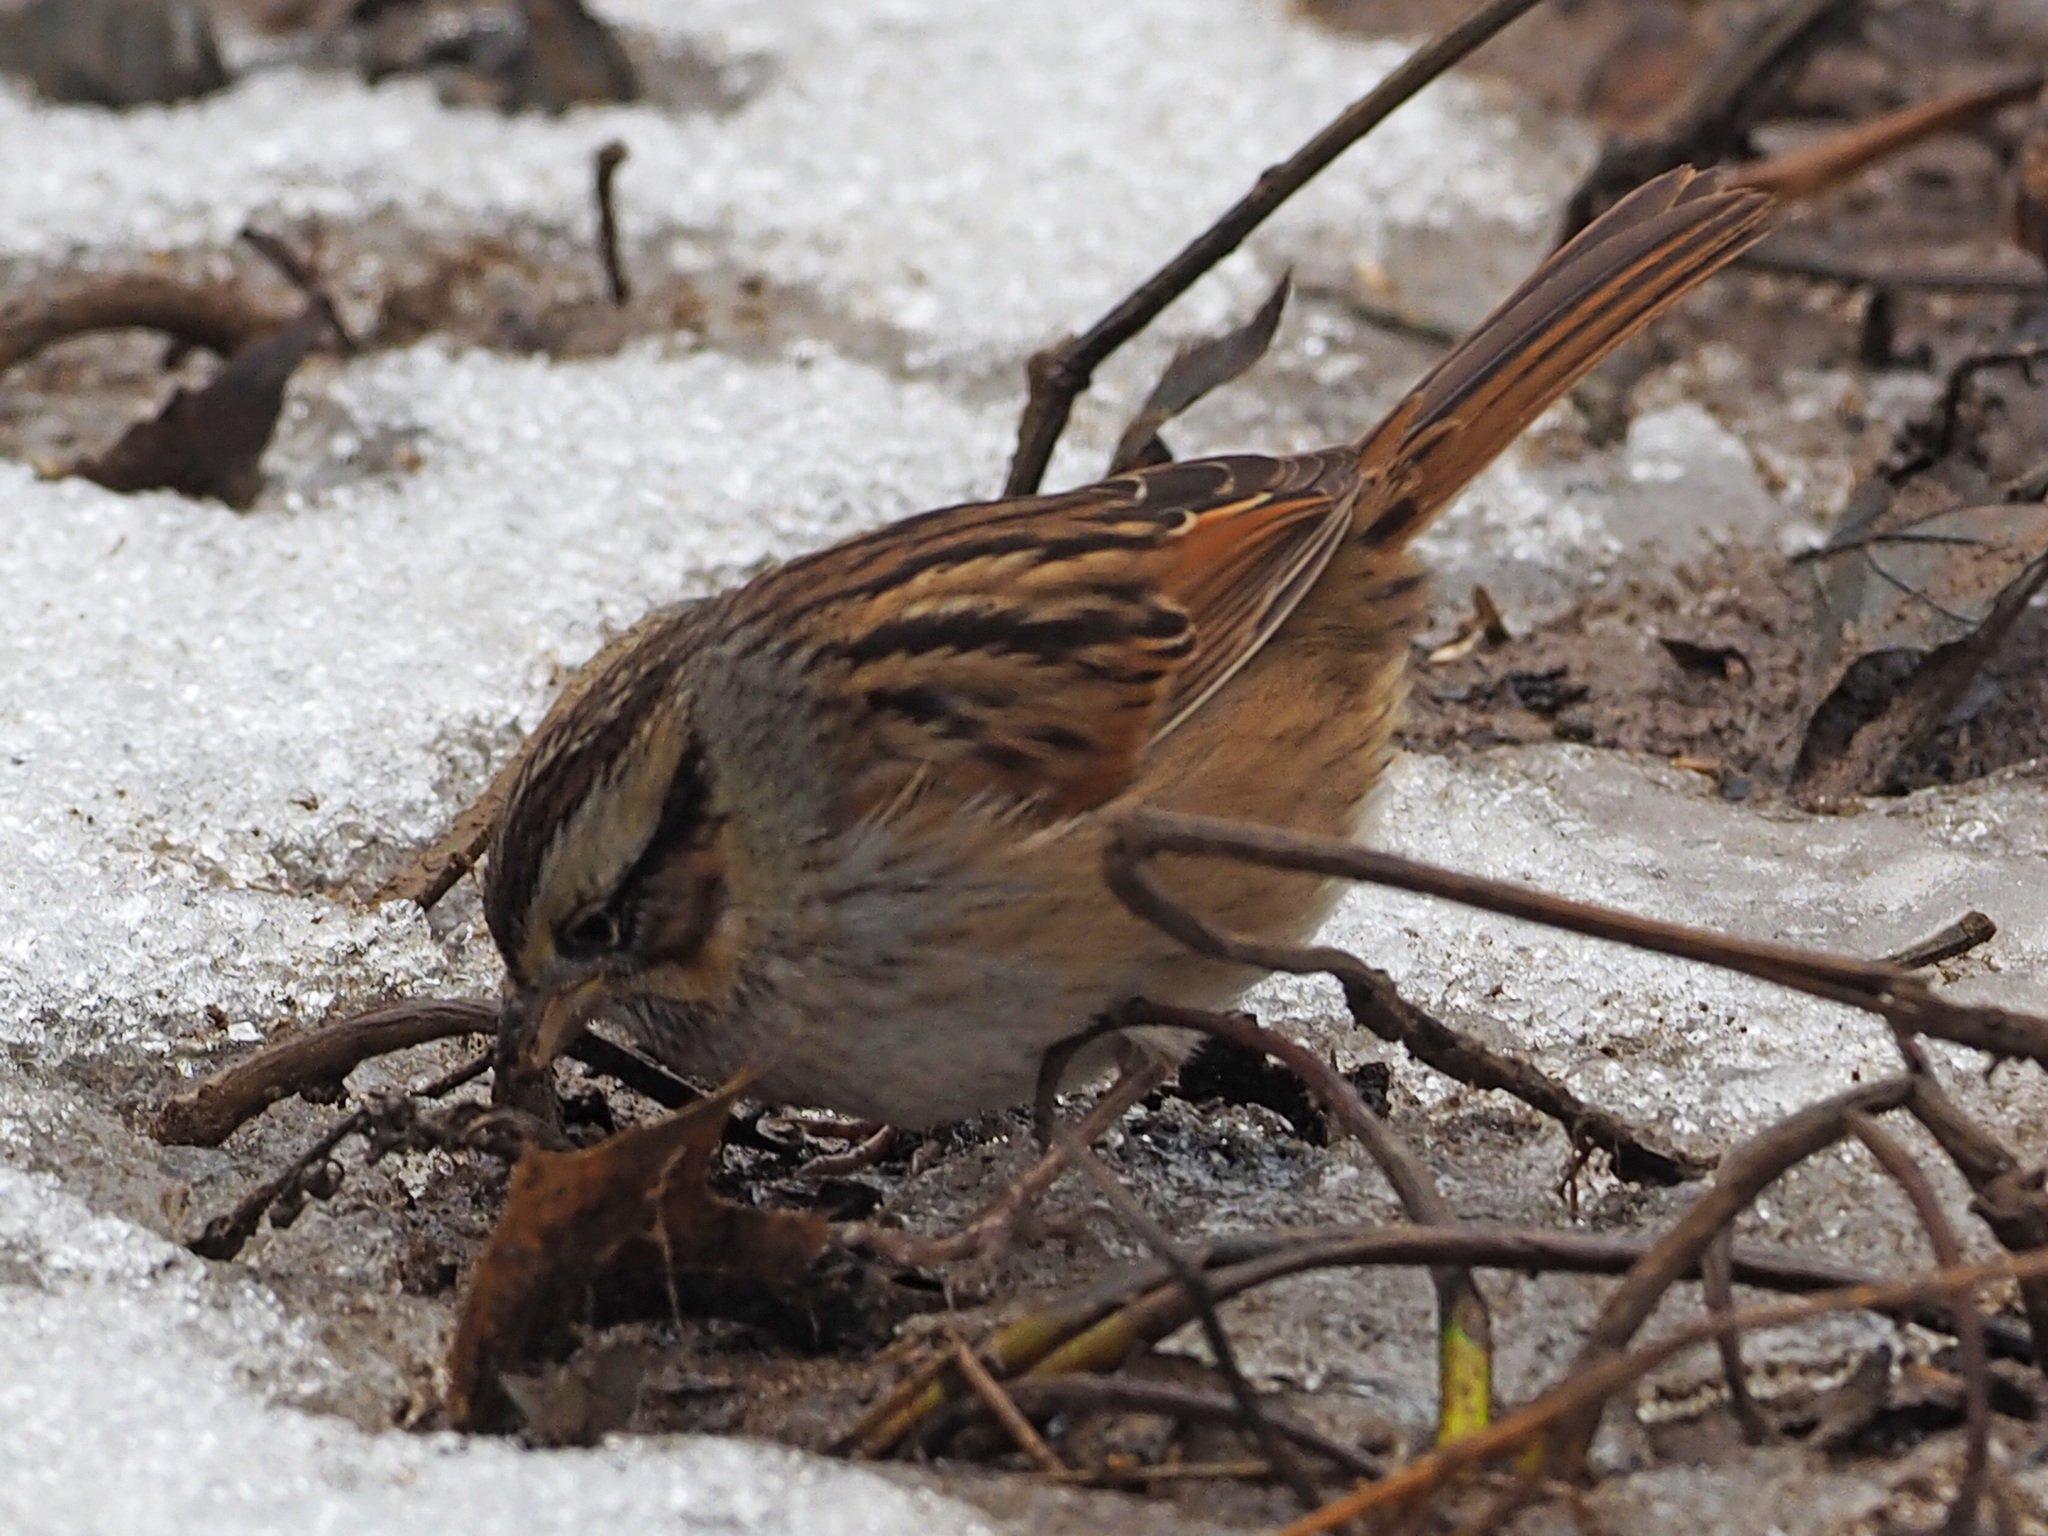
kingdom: Animalia
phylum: Chordata
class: Aves
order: Passeriformes
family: Passerellidae
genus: Melospiza
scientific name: Melospiza georgiana
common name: Swamp sparrow
